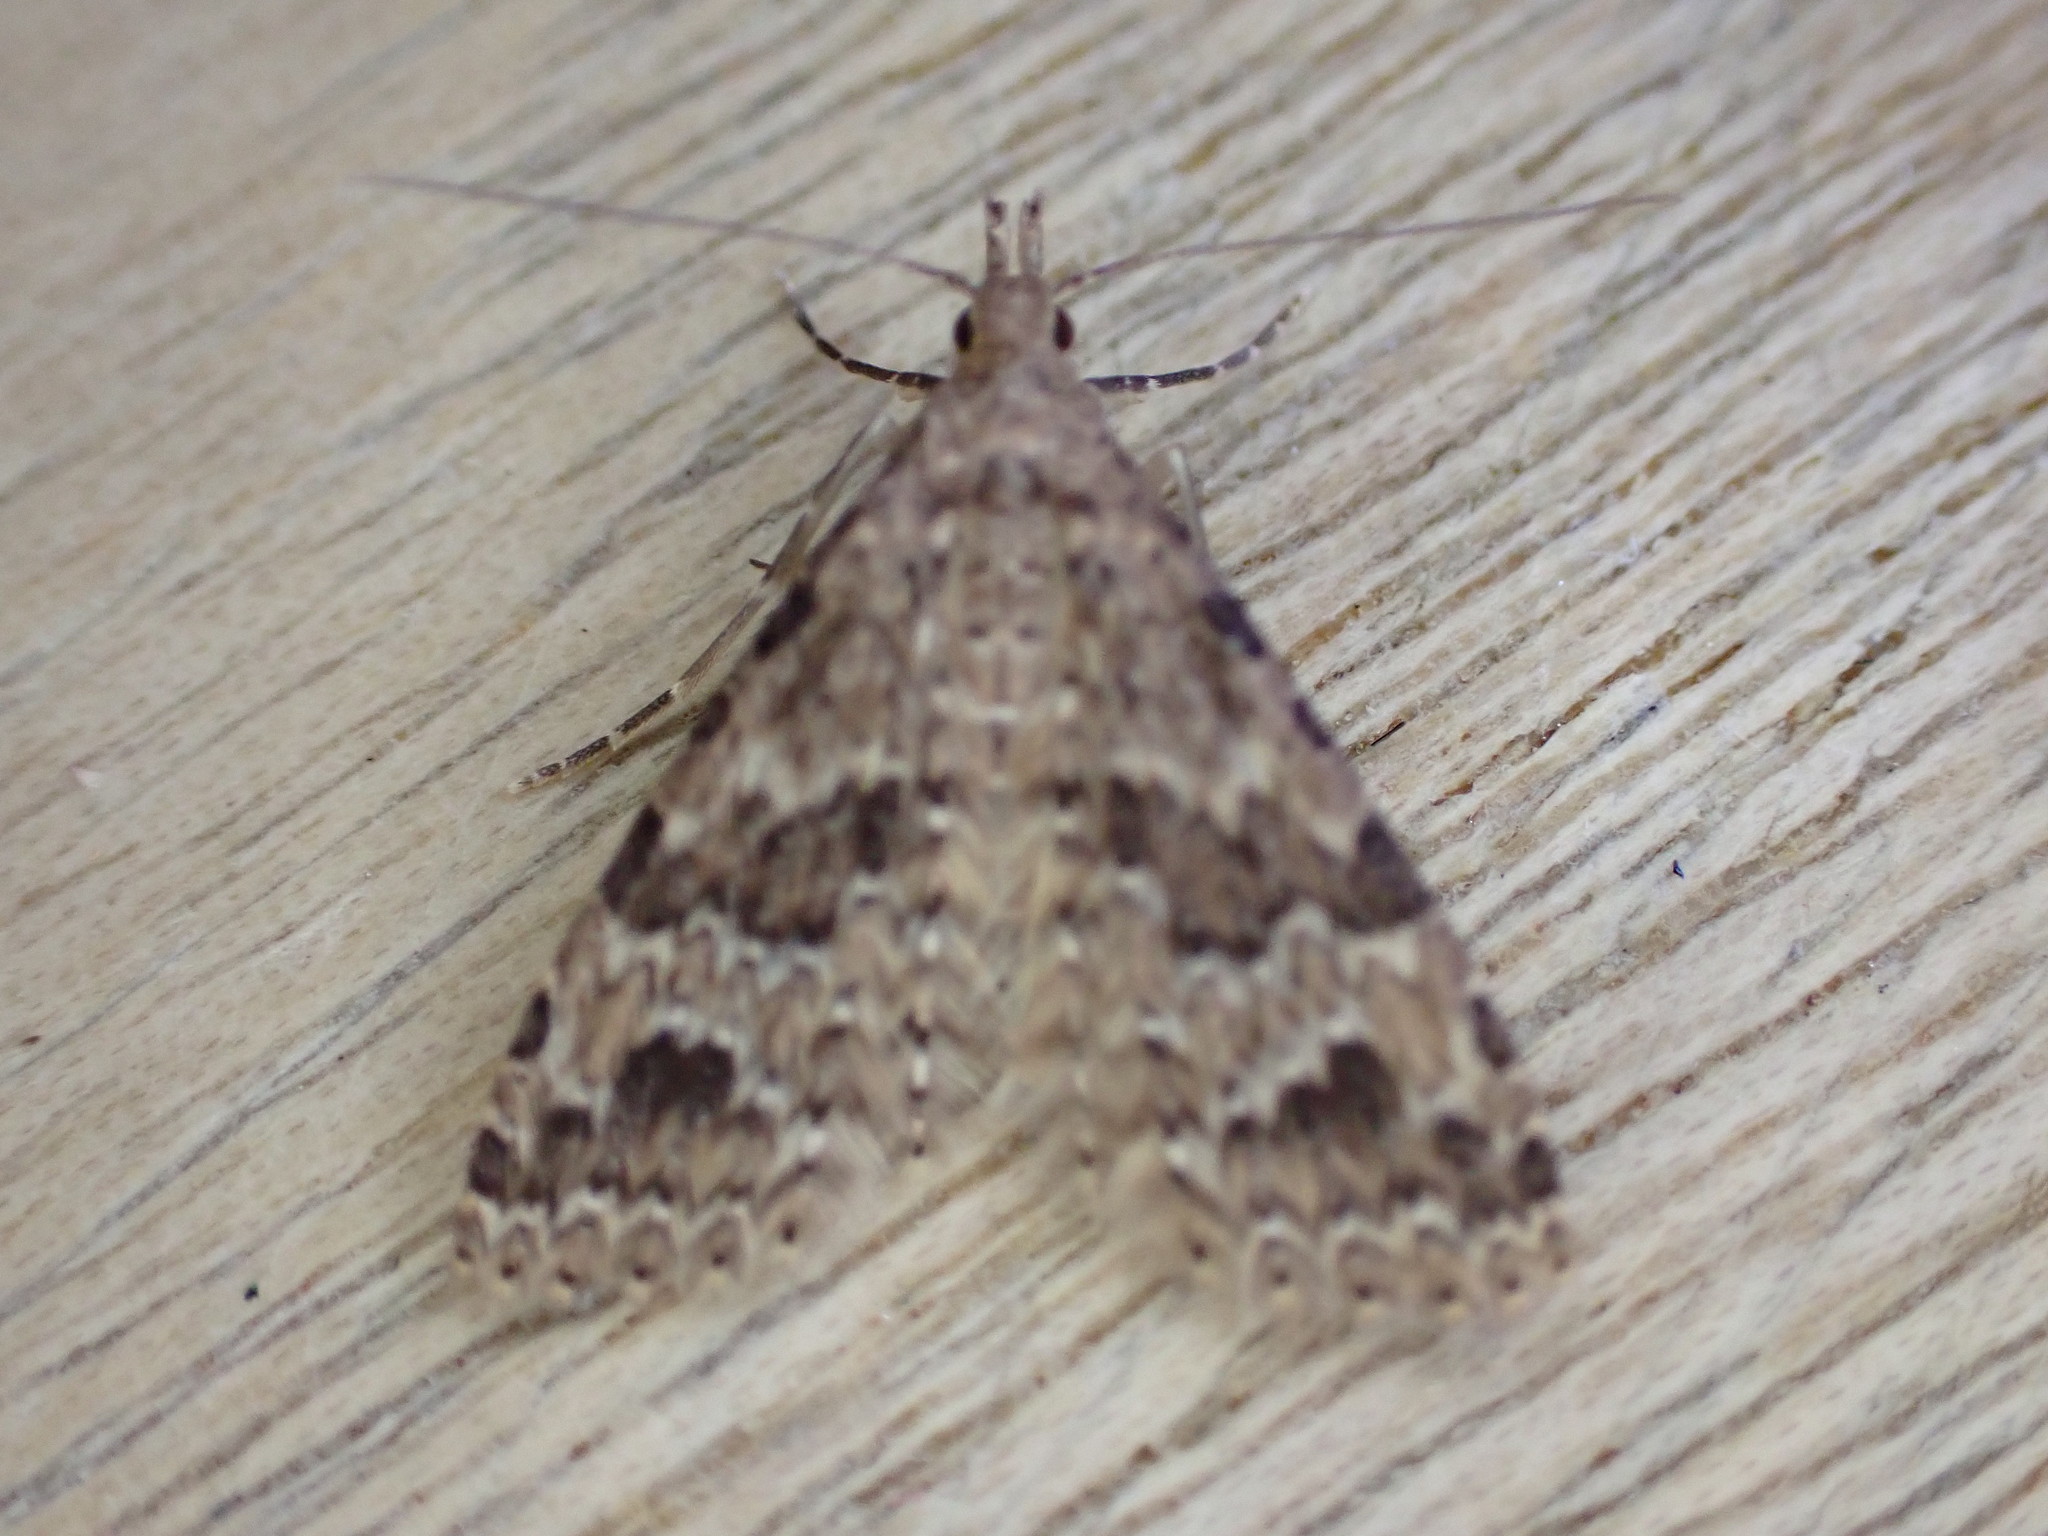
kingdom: Animalia
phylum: Arthropoda
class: Insecta
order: Lepidoptera
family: Alucitidae
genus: Alucita
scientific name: Alucita hexadactyla
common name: Twenty-plume moth
